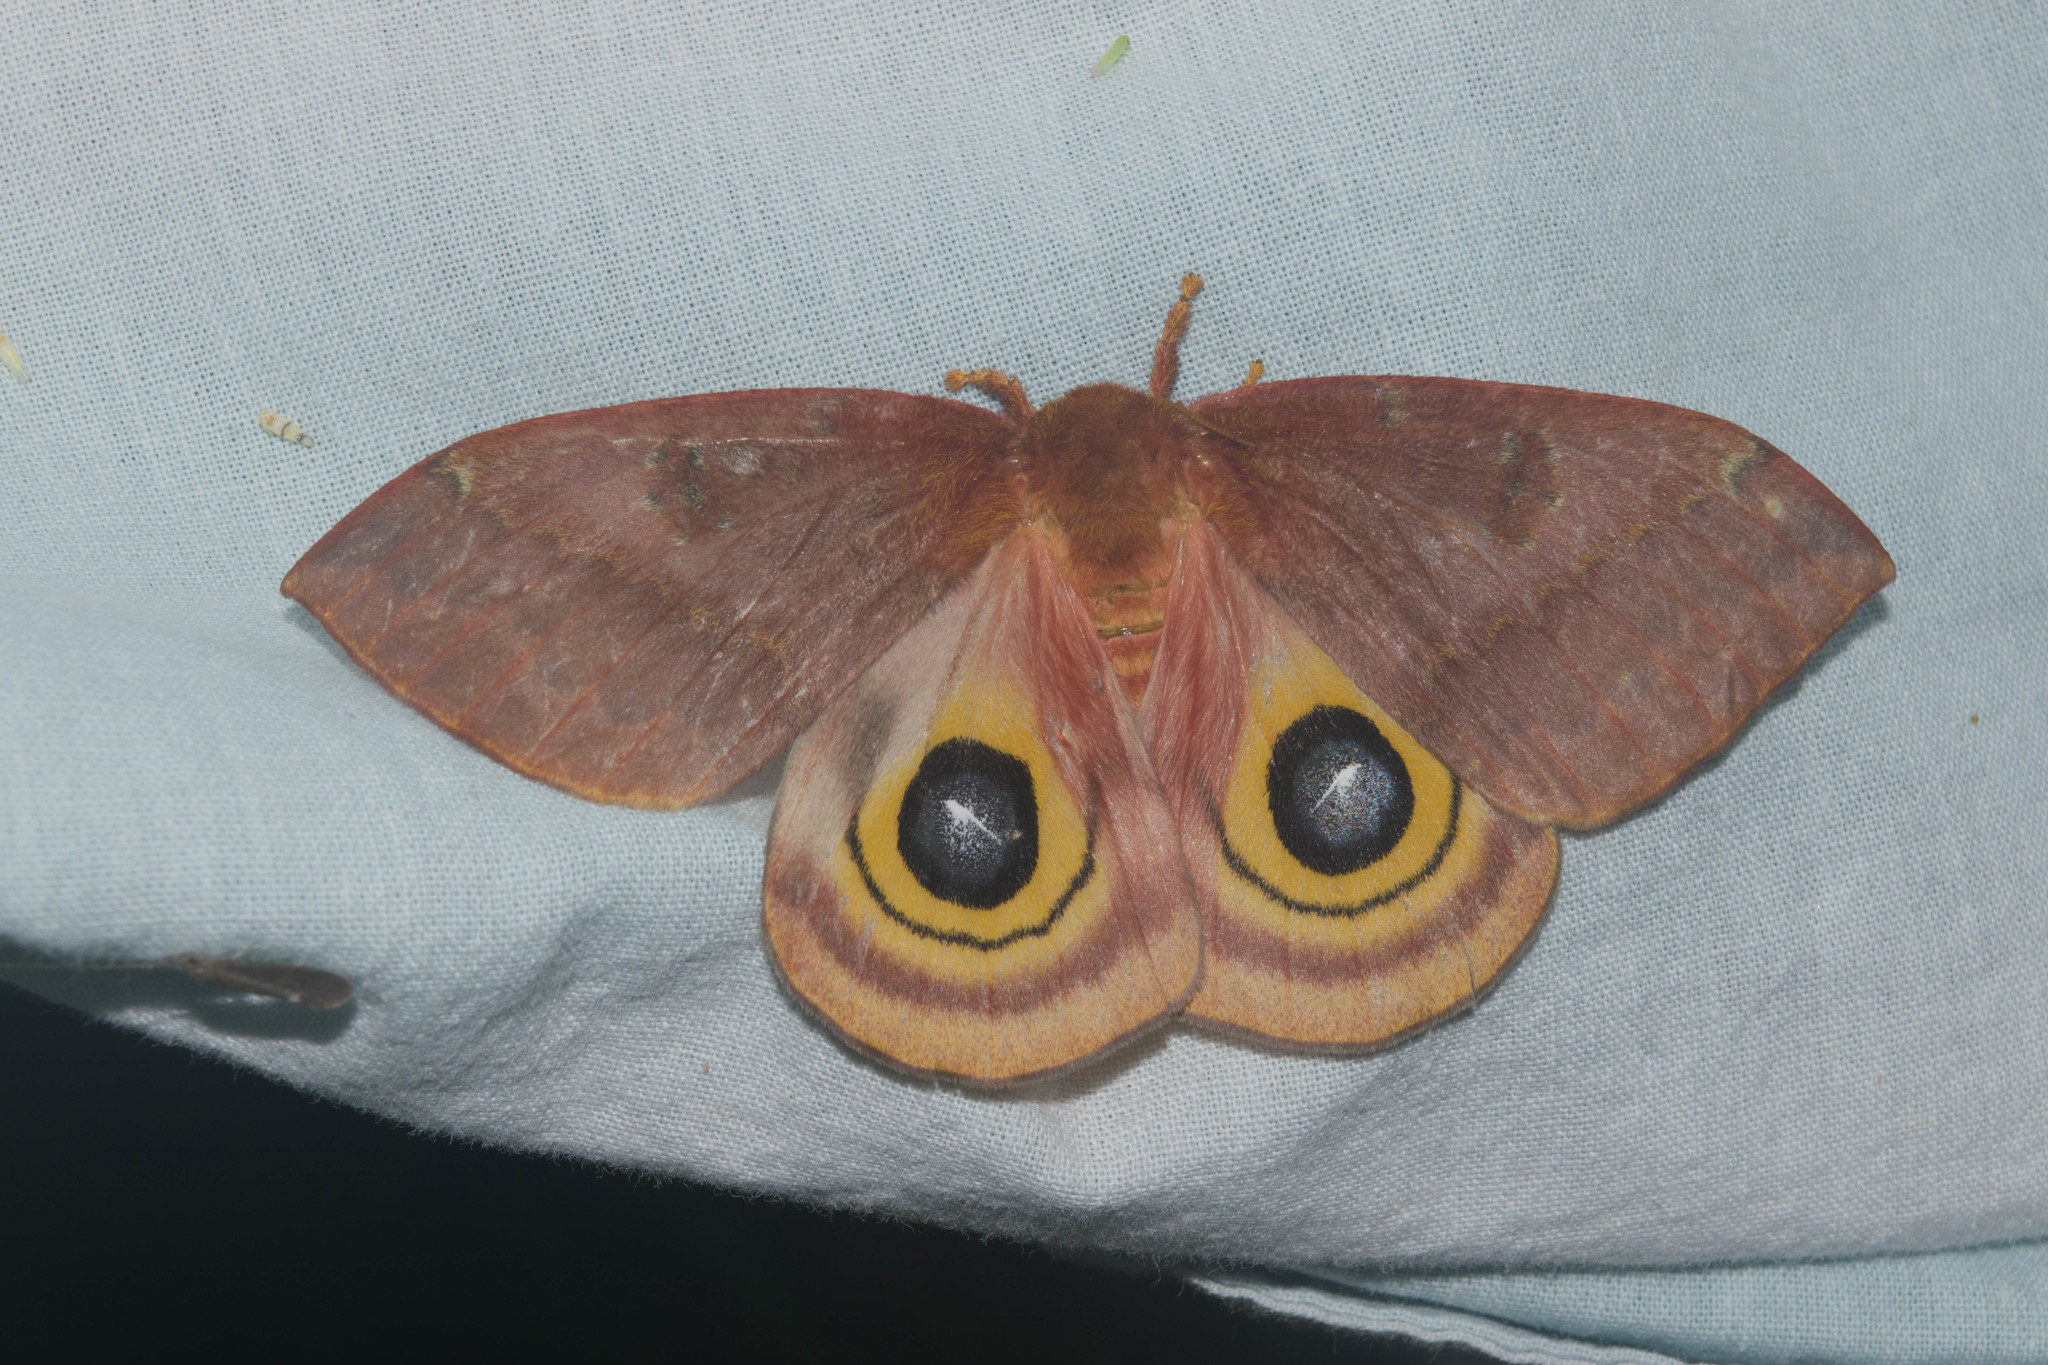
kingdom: Animalia
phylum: Arthropoda
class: Insecta
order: Lepidoptera
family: Saturniidae
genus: Automeris
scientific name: Automeris io
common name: Io moth
